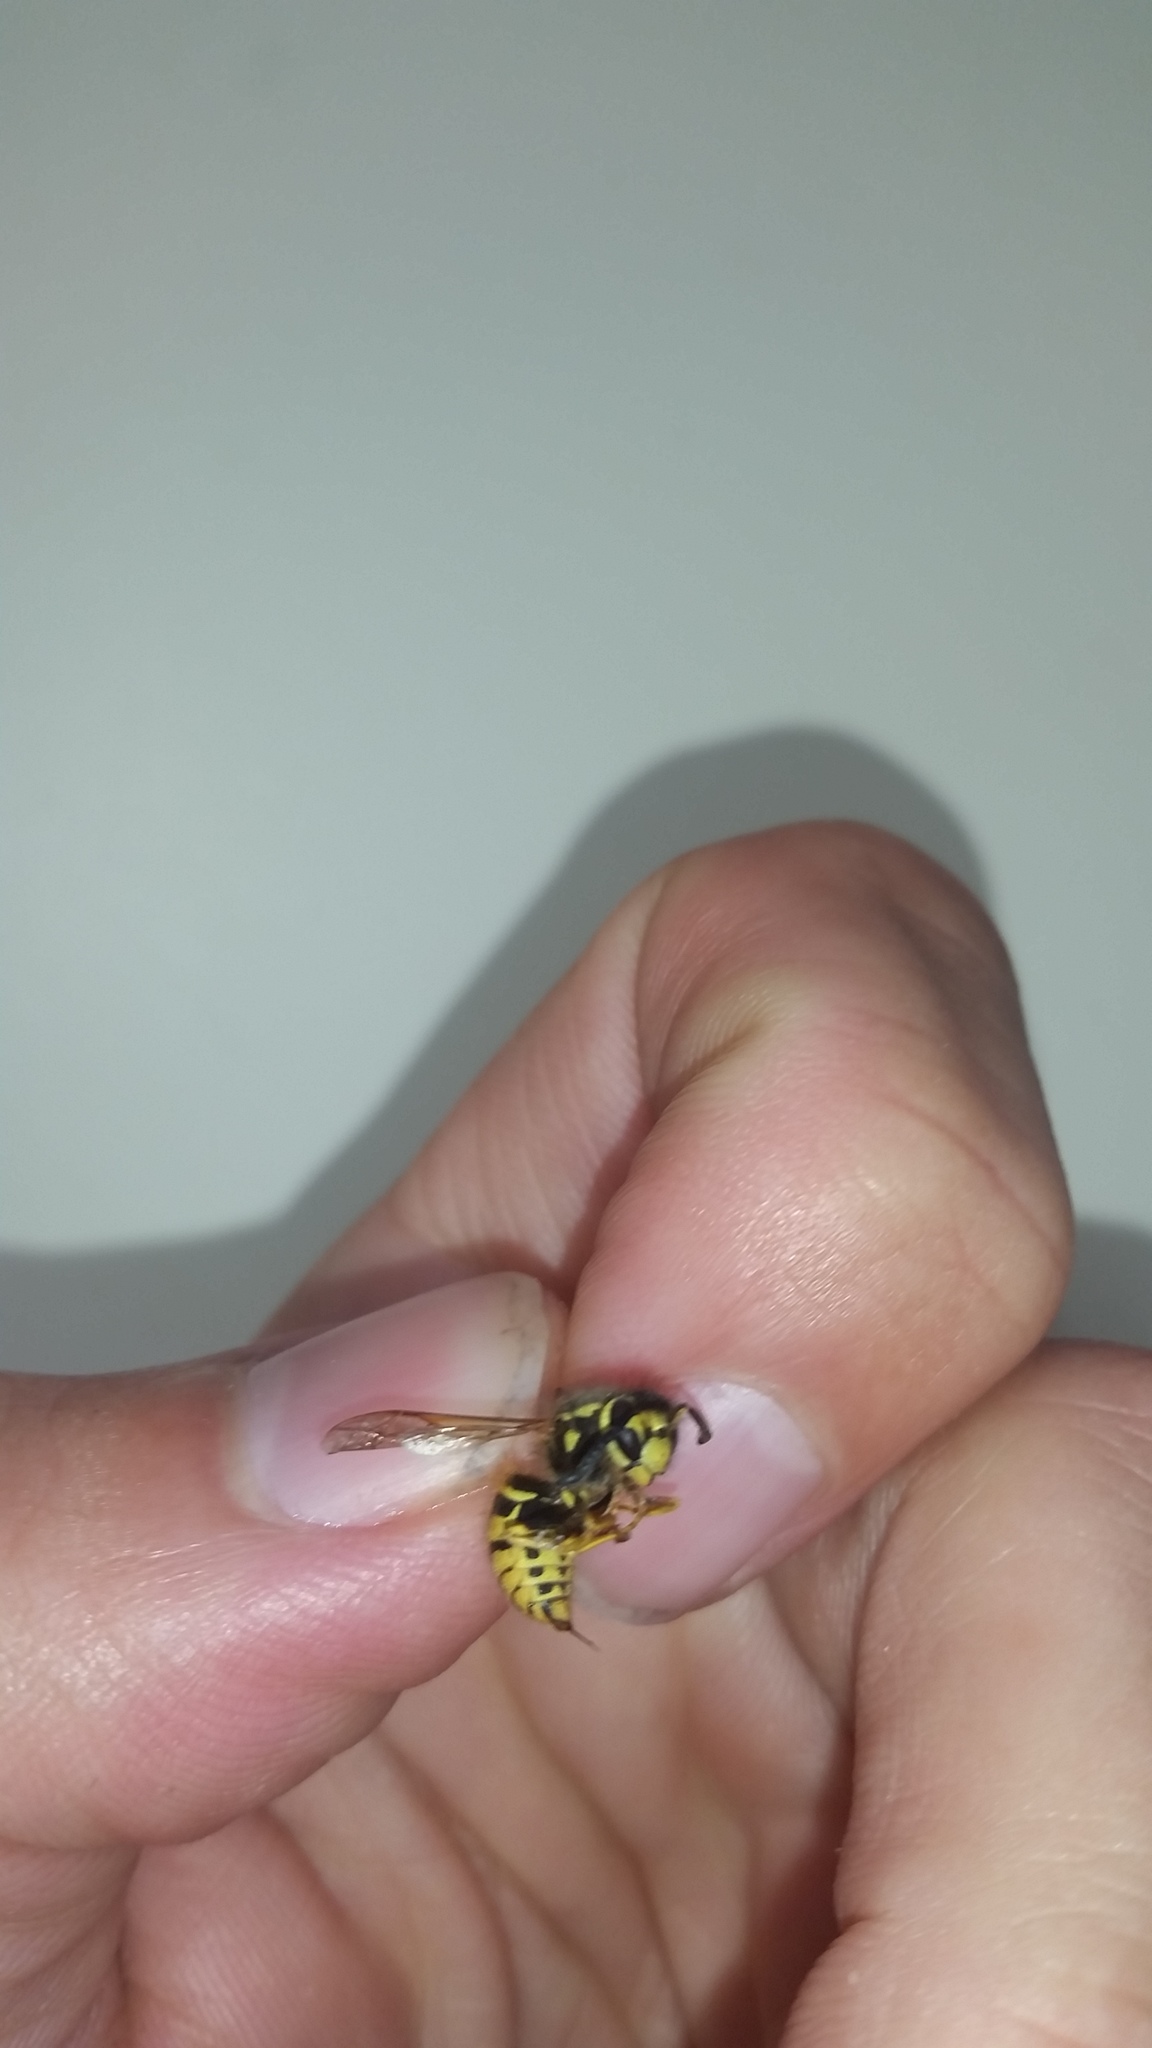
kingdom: Animalia
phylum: Arthropoda
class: Insecta
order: Hymenoptera
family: Vespidae
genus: Vespula
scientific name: Vespula pensylvanica
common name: Western yellowjacket
